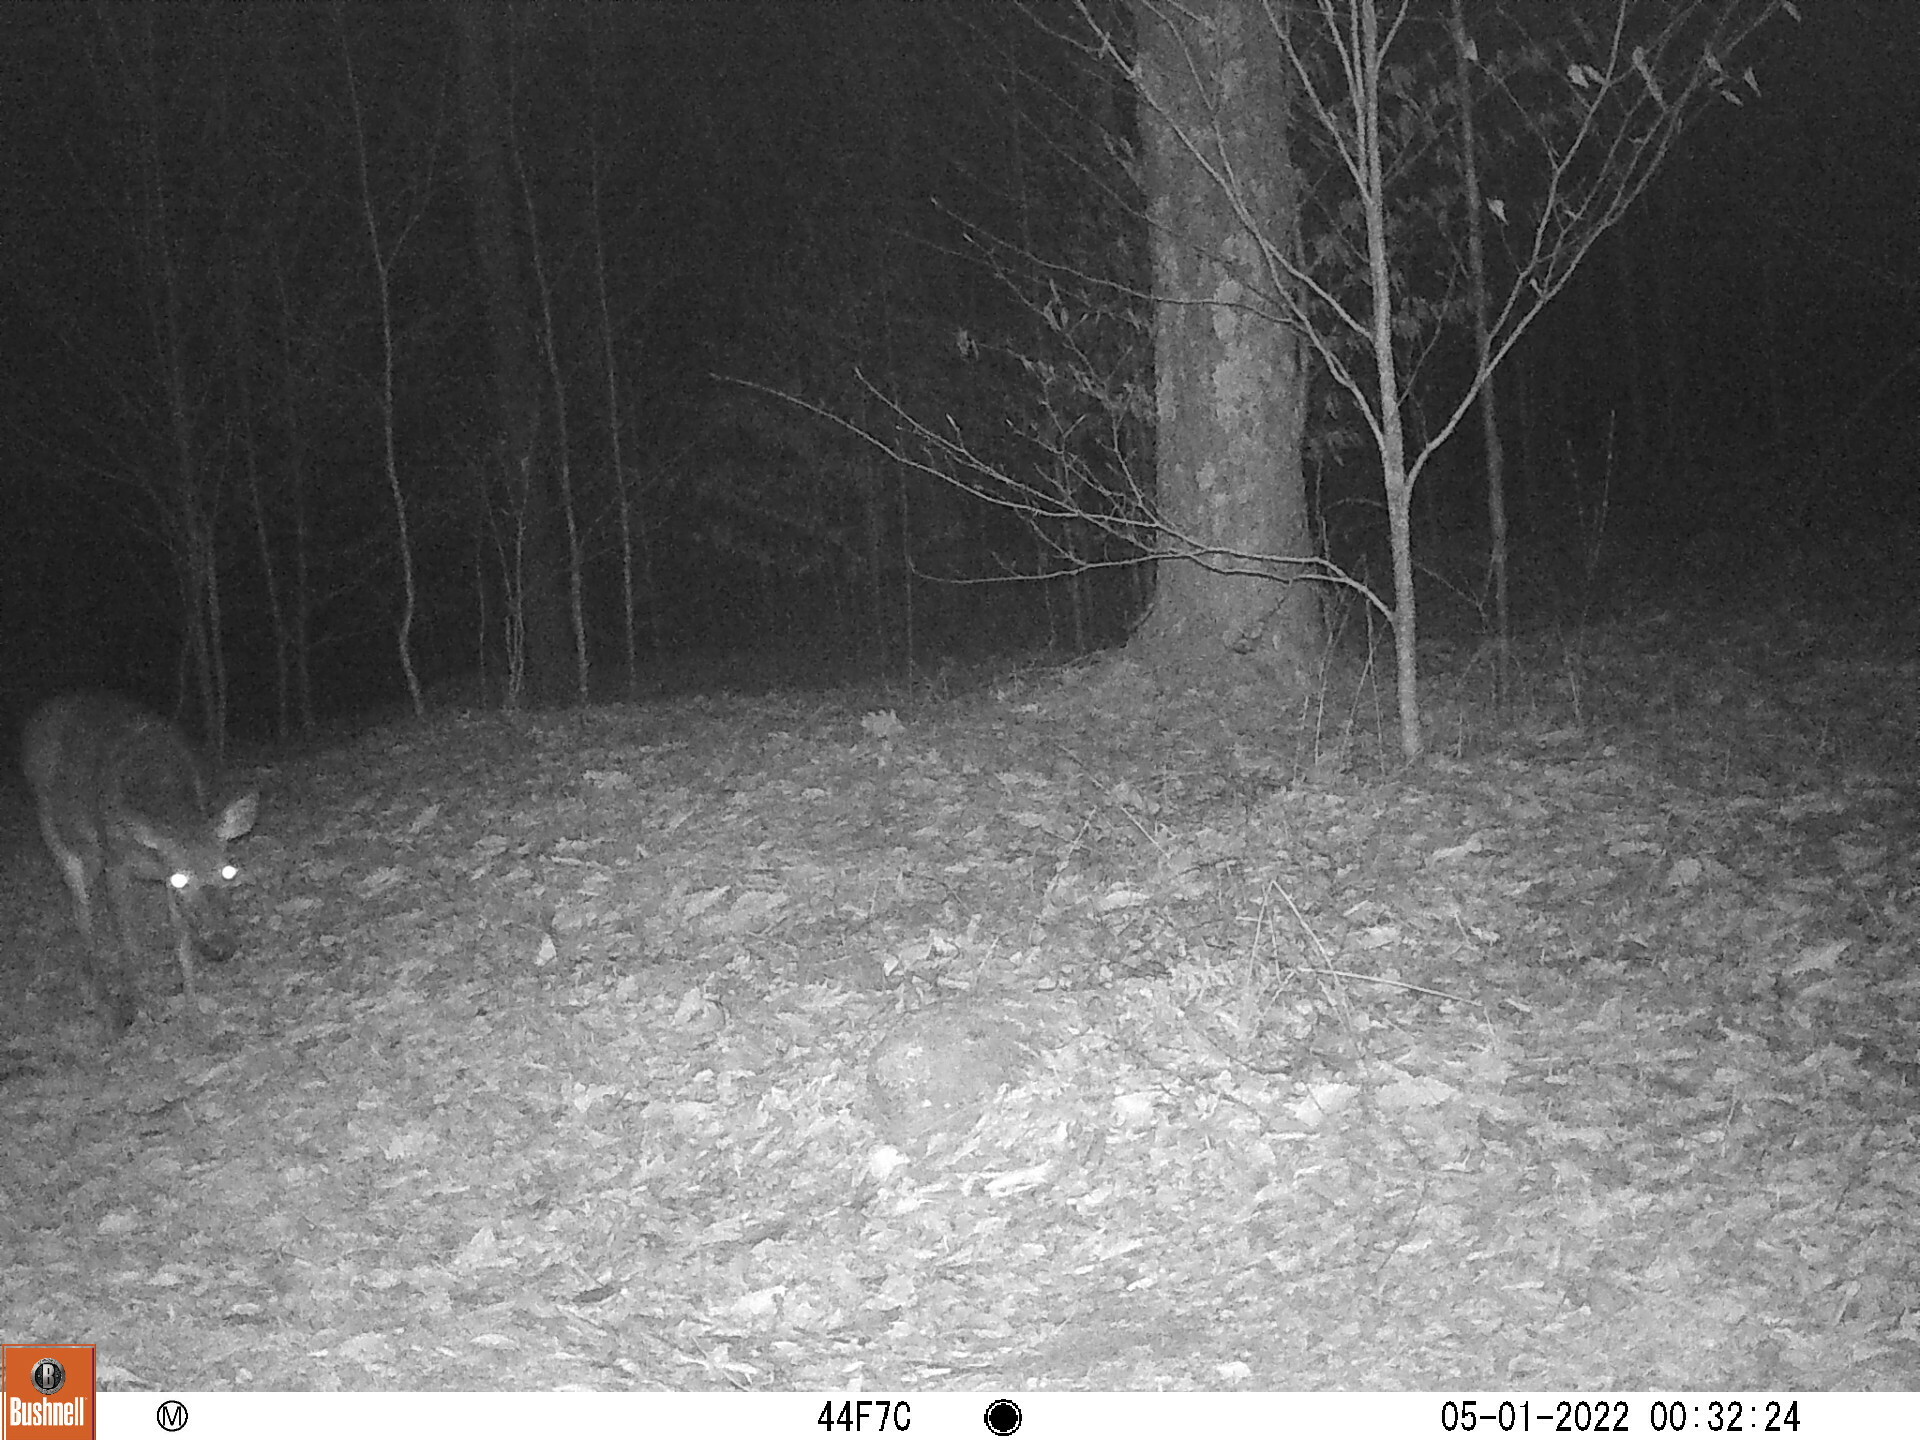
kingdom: Animalia
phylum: Chordata
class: Mammalia
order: Artiodactyla
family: Cervidae
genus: Odocoileus
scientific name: Odocoileus virginianus
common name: White-tailed deer
